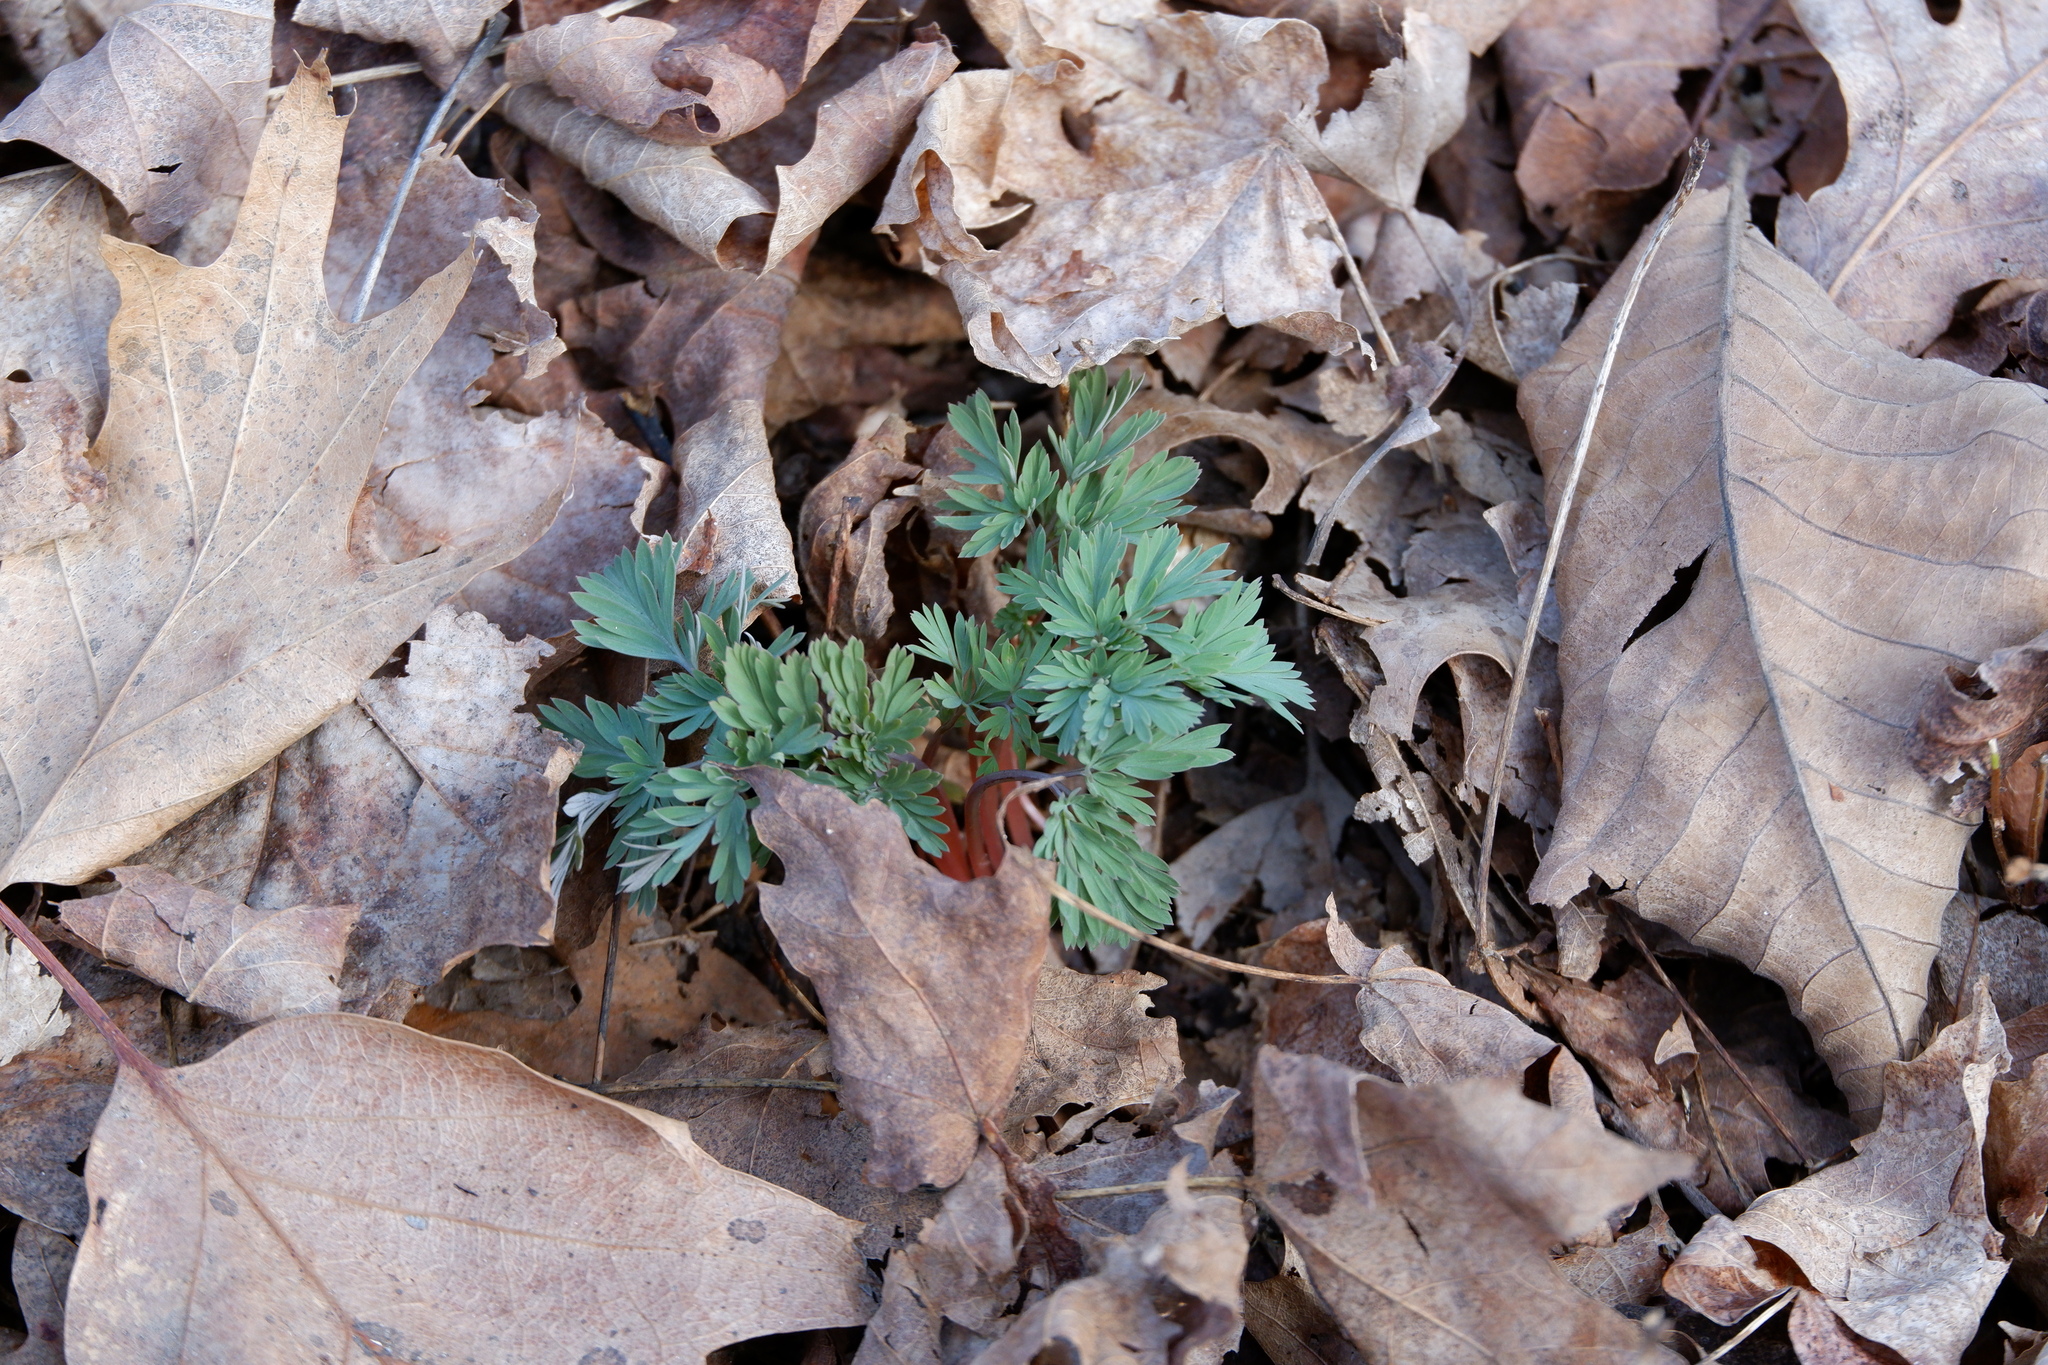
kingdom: Plantae
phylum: Tracheophyta
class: Magnoliopsida
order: Ranunculales
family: Papaveraceae
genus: Dicentra
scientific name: Dicentra cucullaria
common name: Dutchman's breeches
